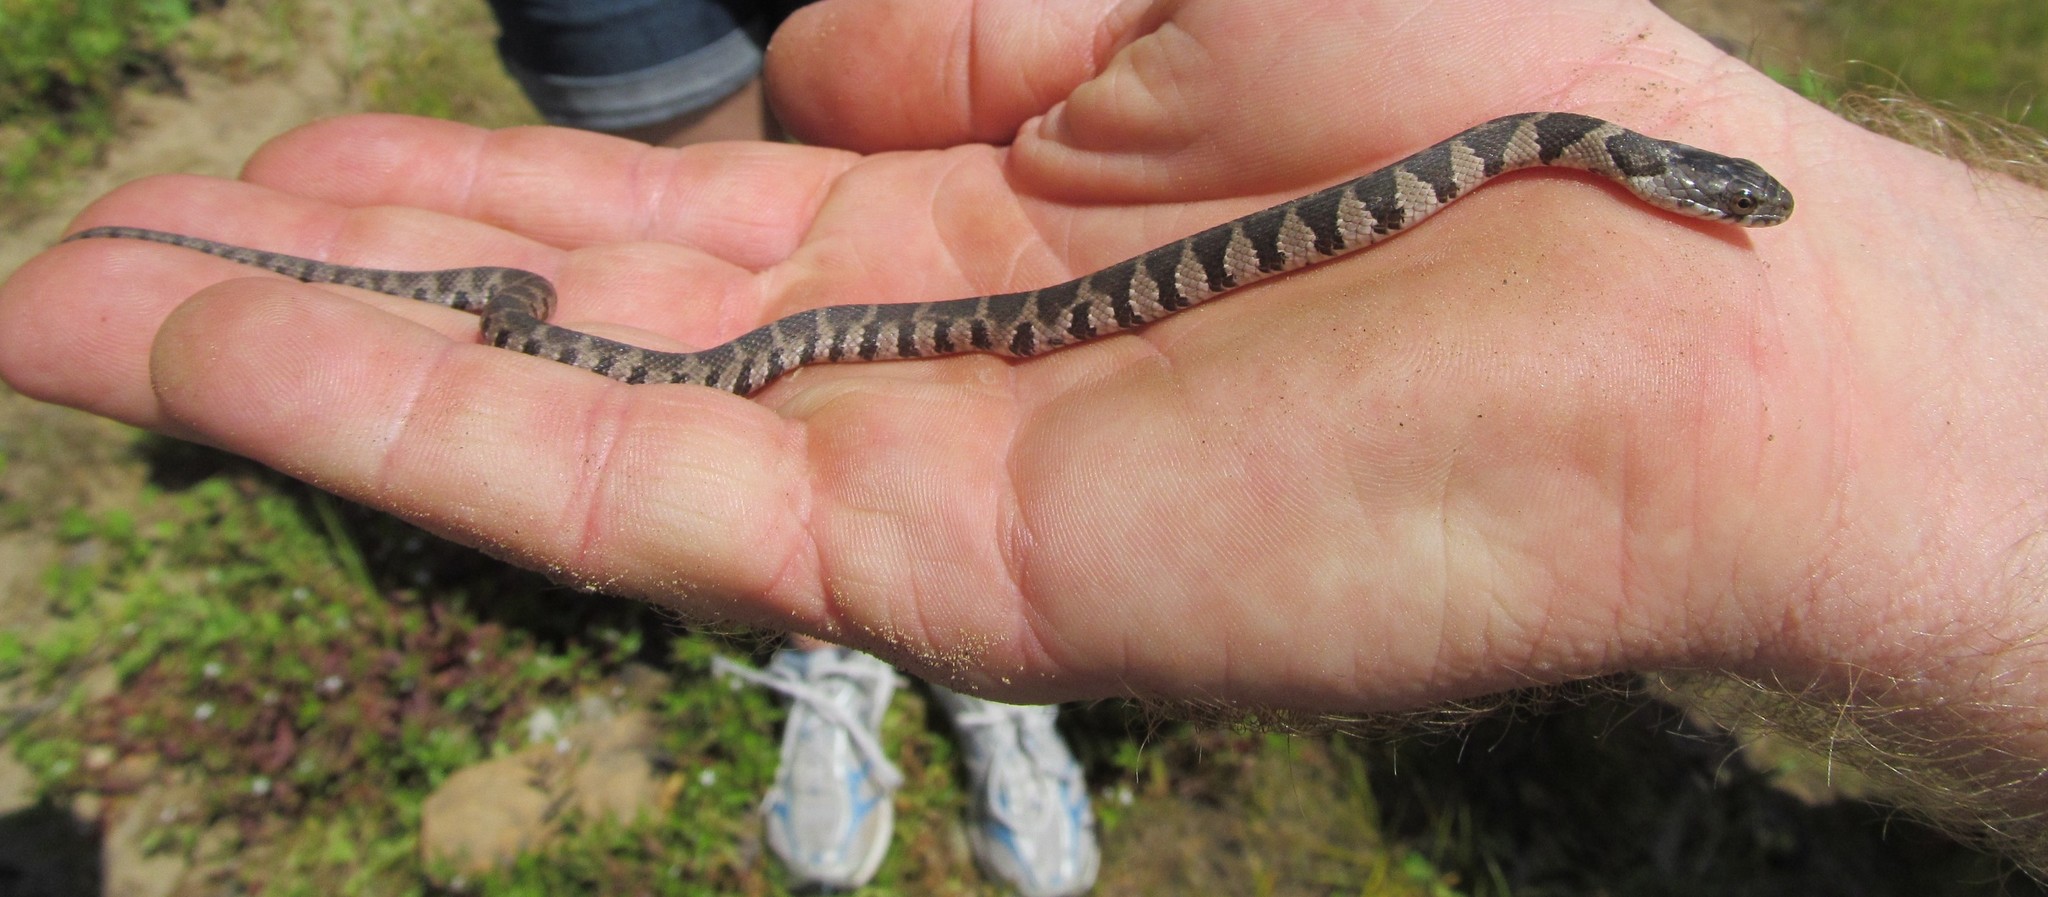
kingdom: Animalia
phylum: Chordata
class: Squamata
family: Colubridae
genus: Nerodia
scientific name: Nerodia sipedon
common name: Northern water snake
